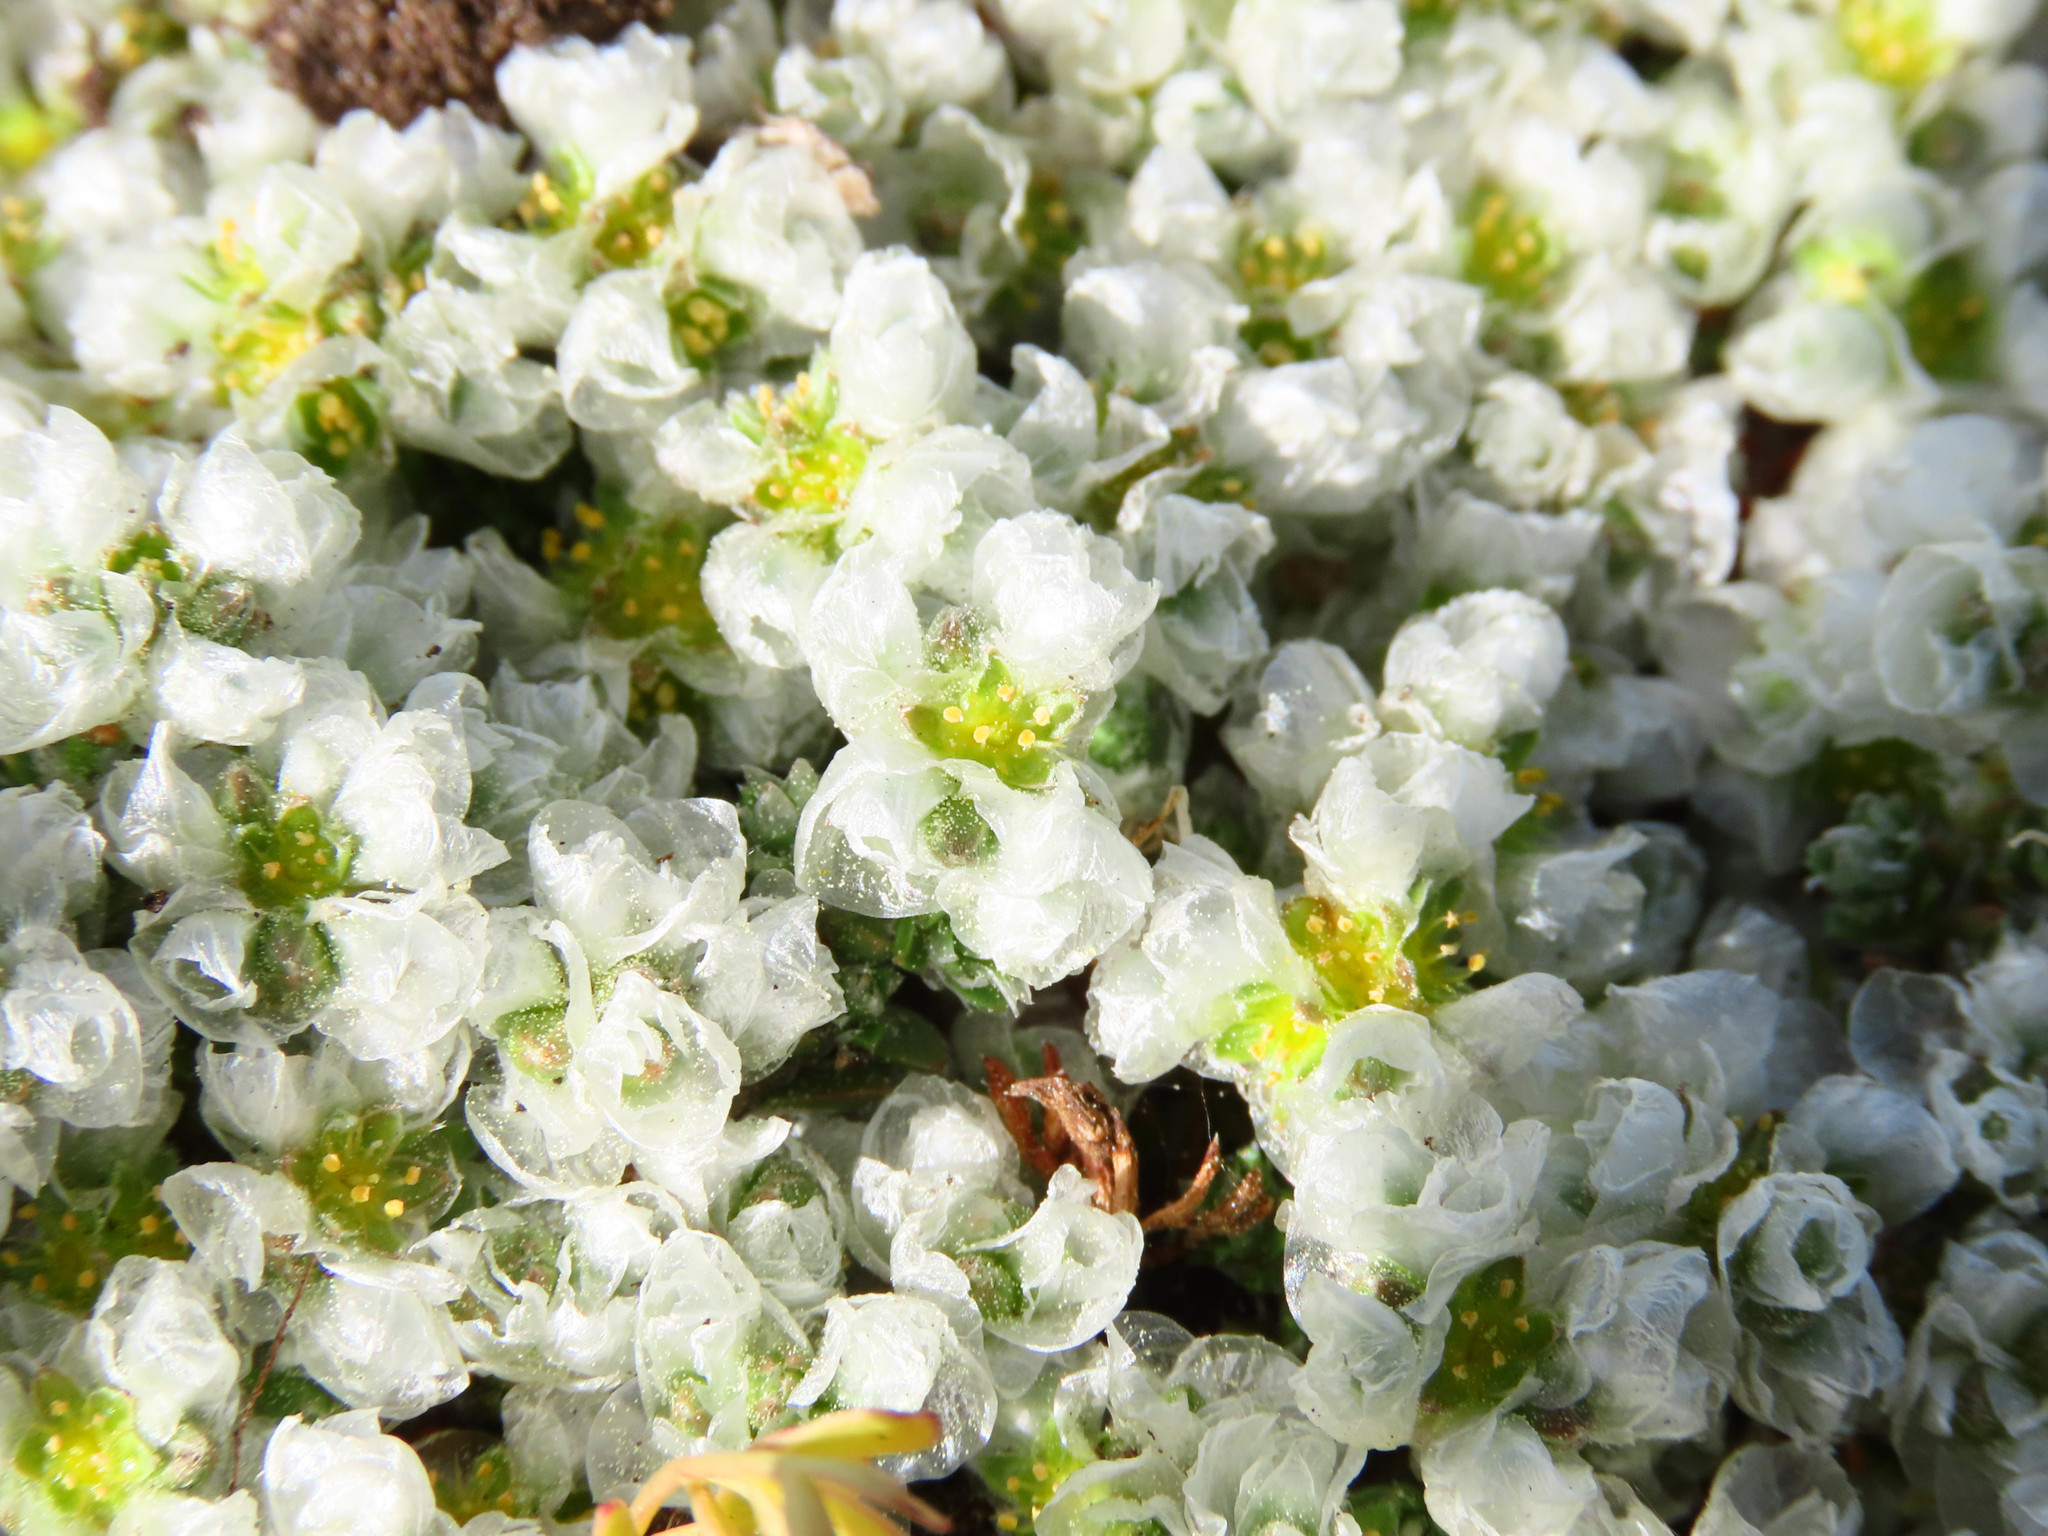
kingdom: Plantae
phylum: Tracheophyta
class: Magnoliopsida
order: Caryophyllales
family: Caryophyllaceae
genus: Paronychia
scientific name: Paronychia kapela
